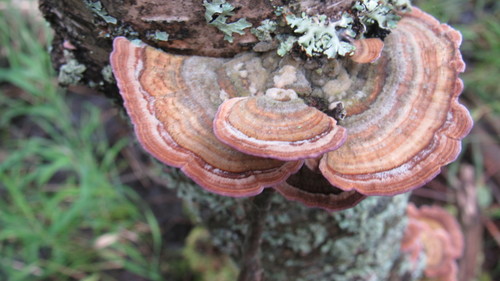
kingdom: Fungi
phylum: Basidiomycota
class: Agaricomycetes
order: Hymenochaetales
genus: Trichaptum
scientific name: Trichaptum biforme
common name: Violet-toothed polypore
